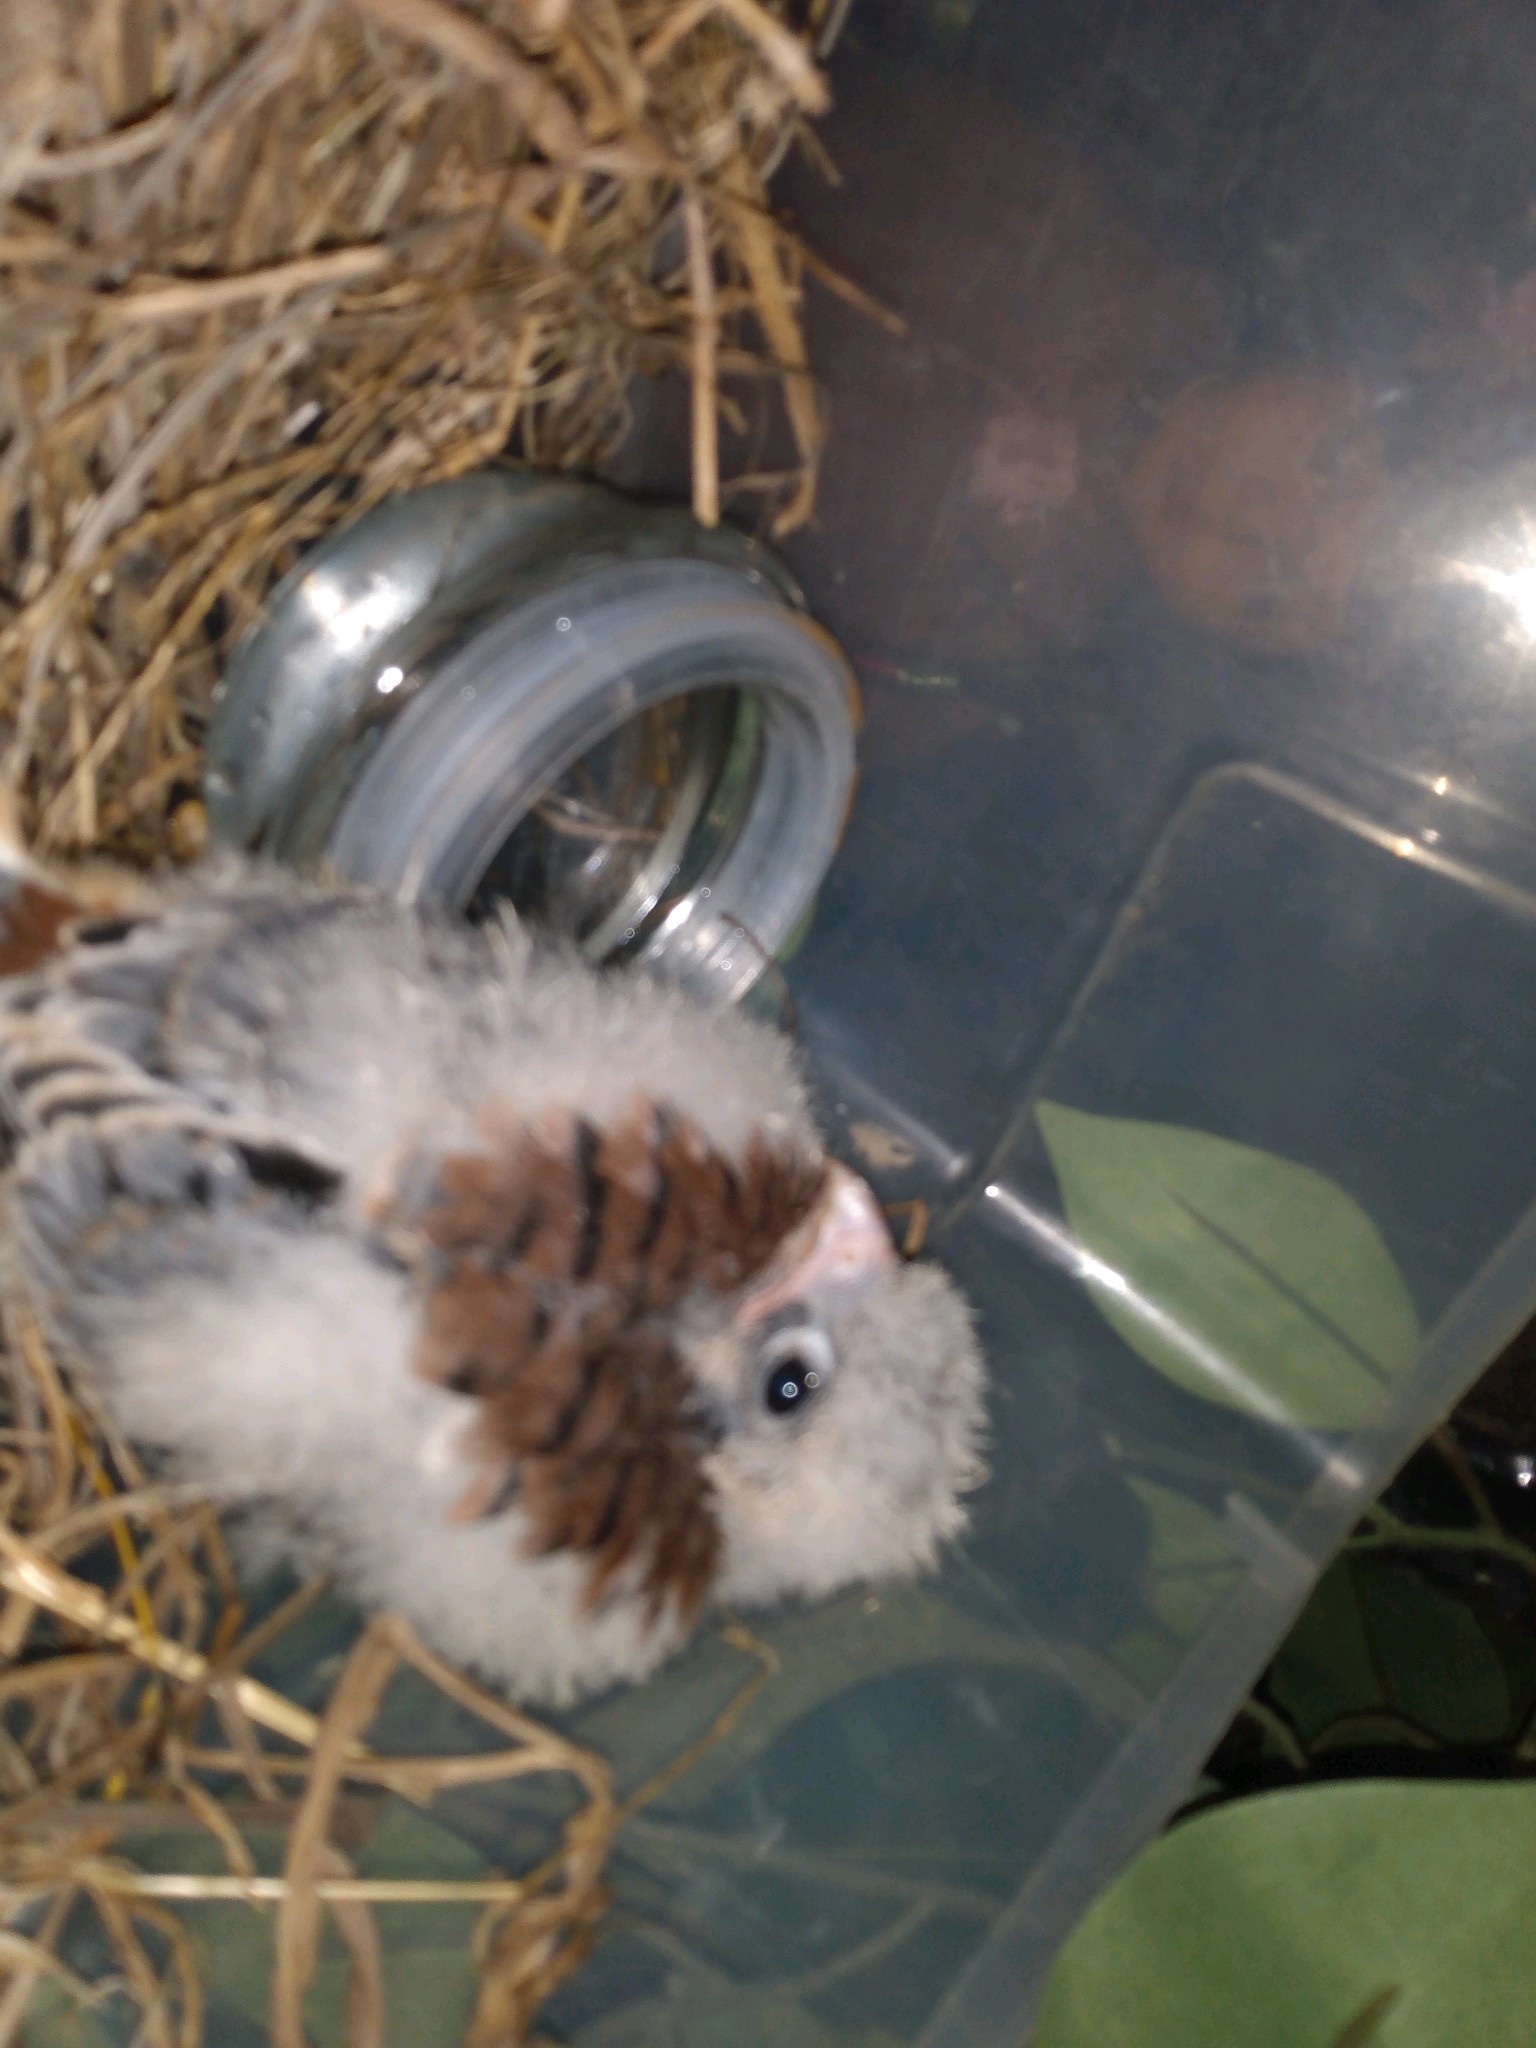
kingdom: Animalia
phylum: Chordata
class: Aves
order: Falconiformes
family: Falconidae
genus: Falco
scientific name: Falco sparverius
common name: American kestrel
